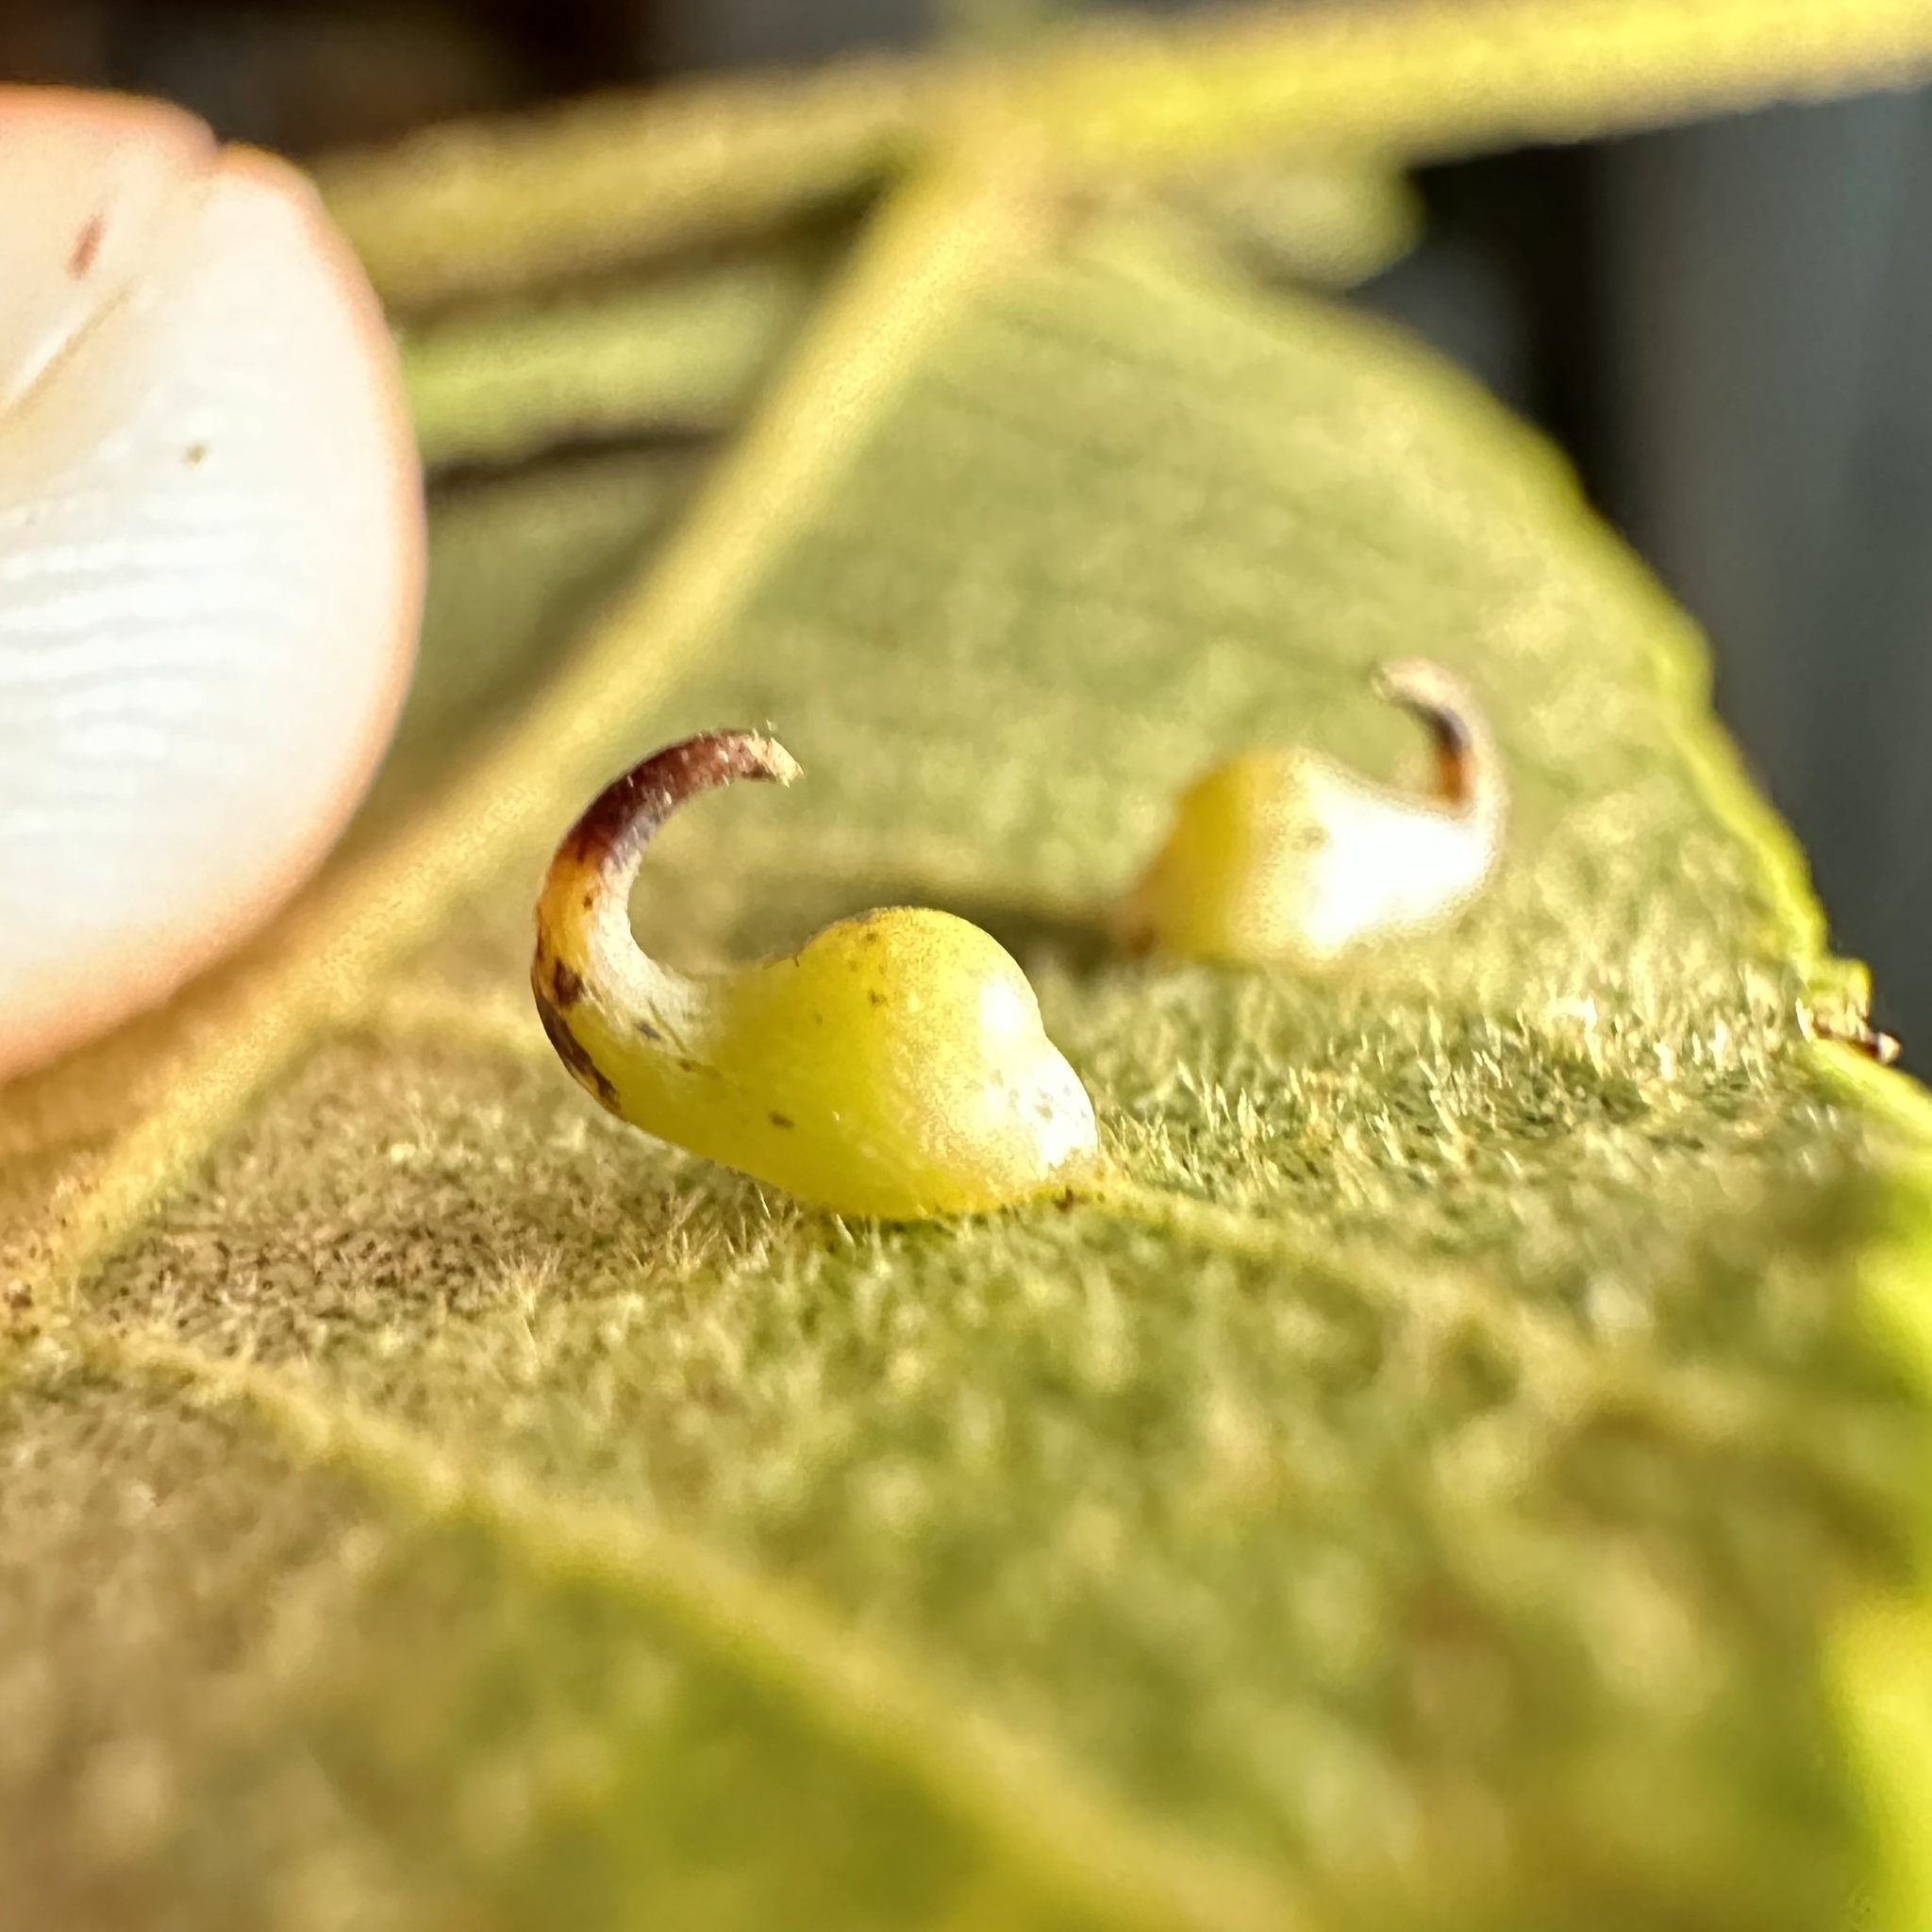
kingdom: Animalia
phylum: Arthropoda
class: Insecta
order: Diptera
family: Cecidomyiidae
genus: Caryomyia
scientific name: Caryomyia recurvata
